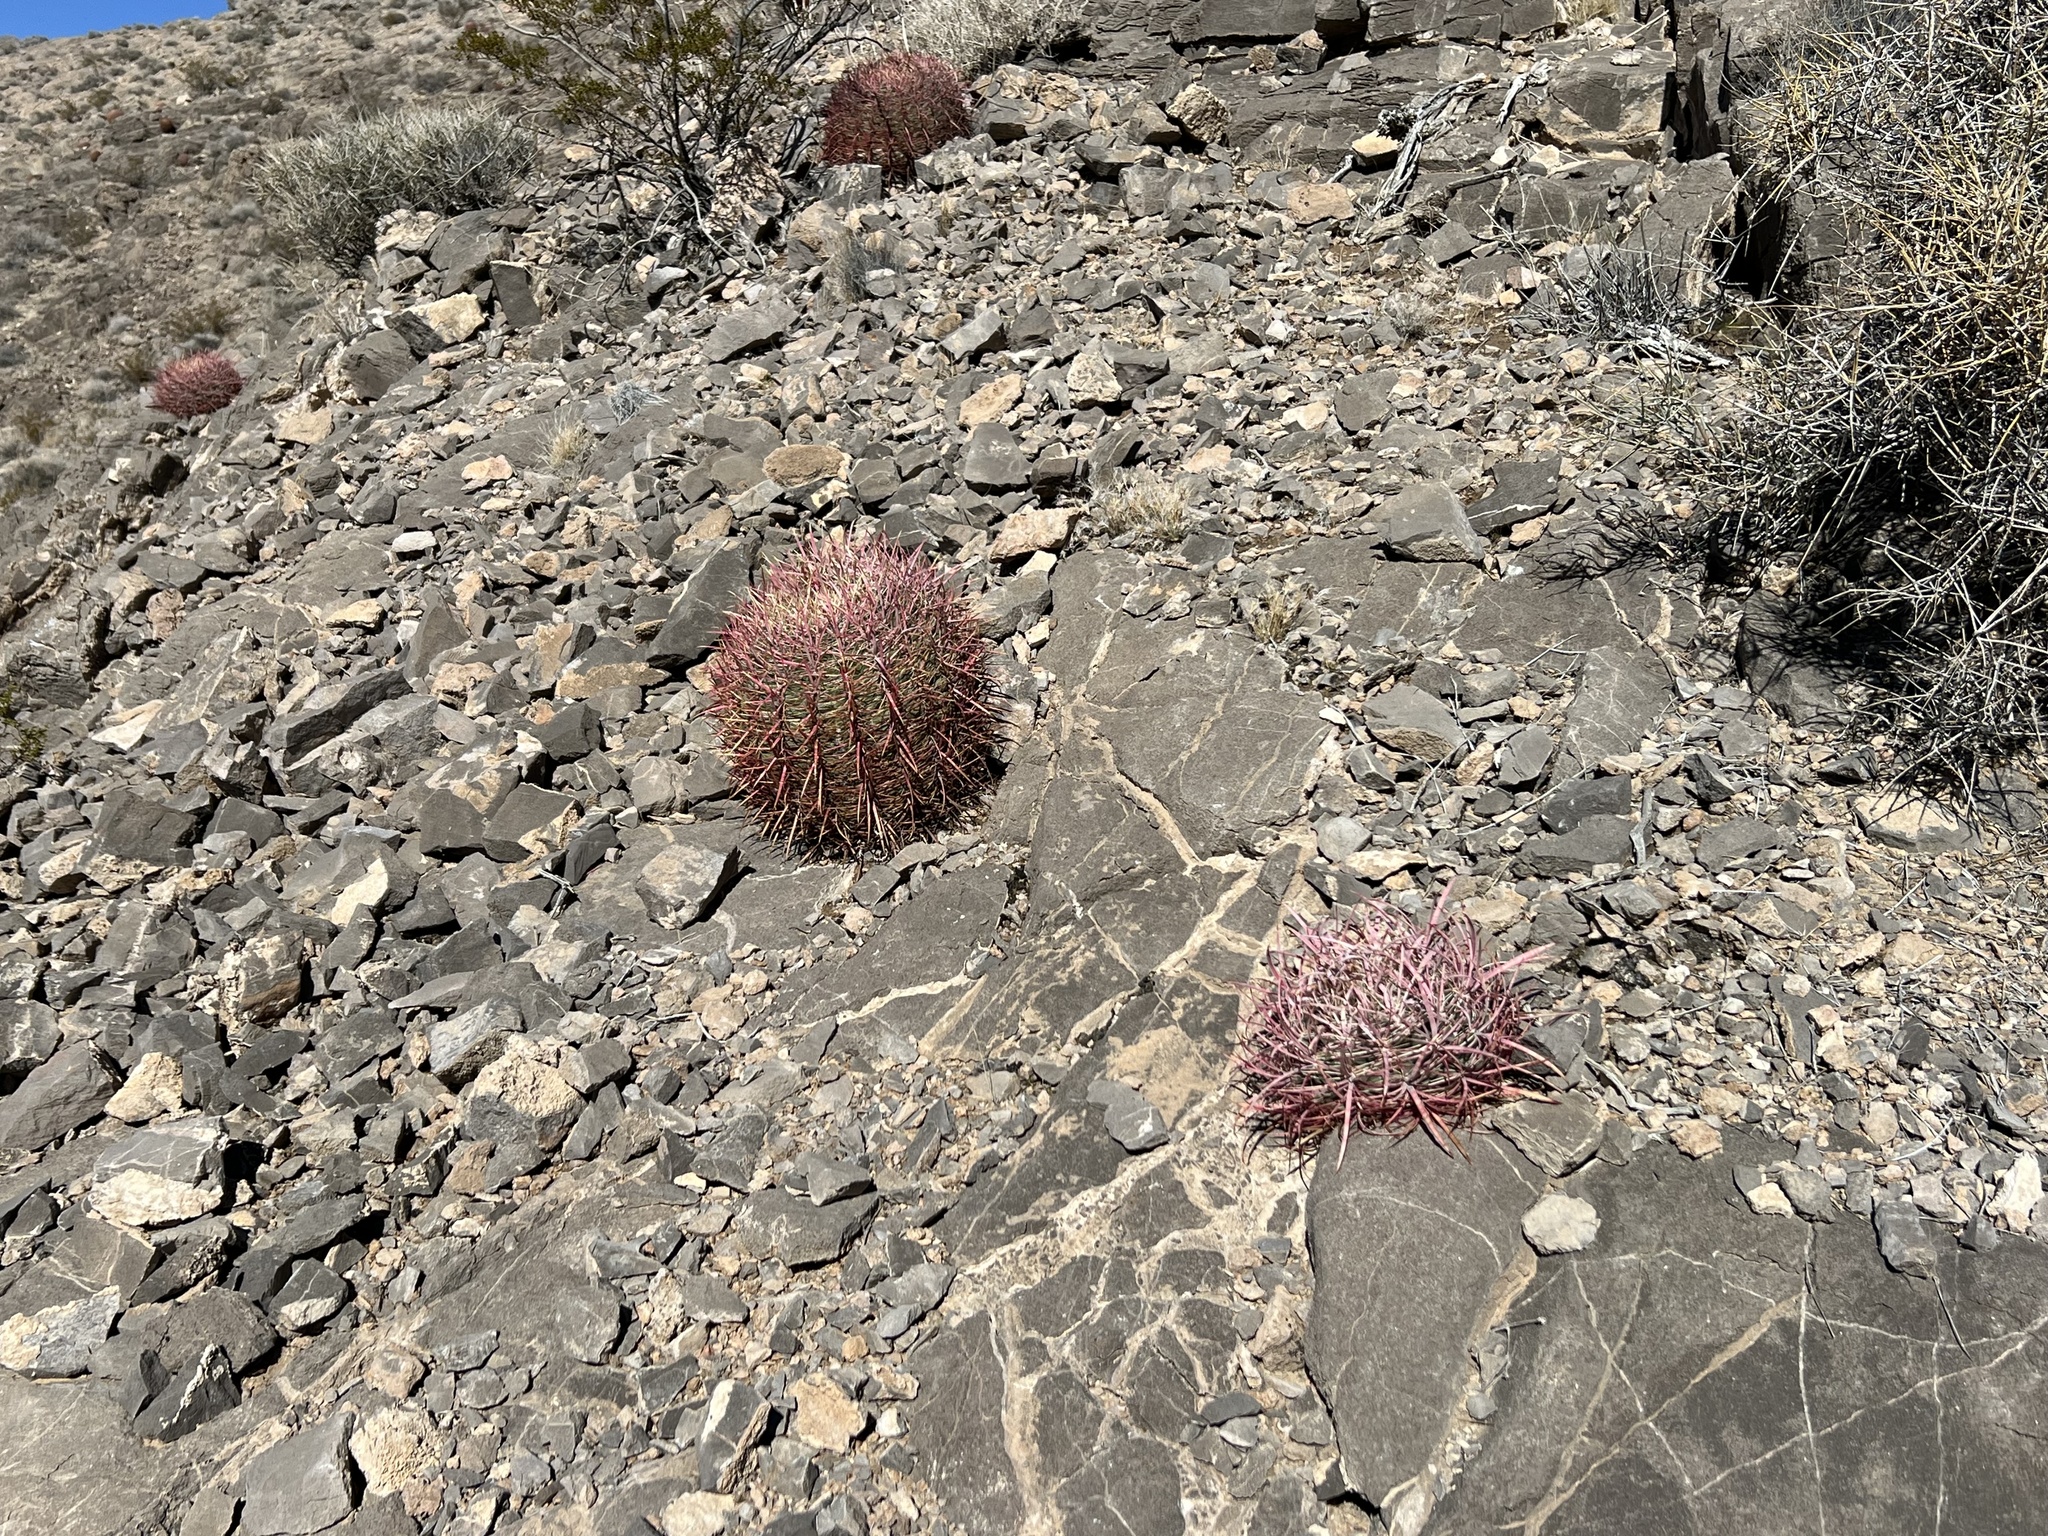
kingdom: Plantae
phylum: Tracheophyta
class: Magnoliopsida
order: Caryophyllales
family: Cactaceae
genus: Ferocactus
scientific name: Ferocactus cylindraceus
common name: California barrel cactus
